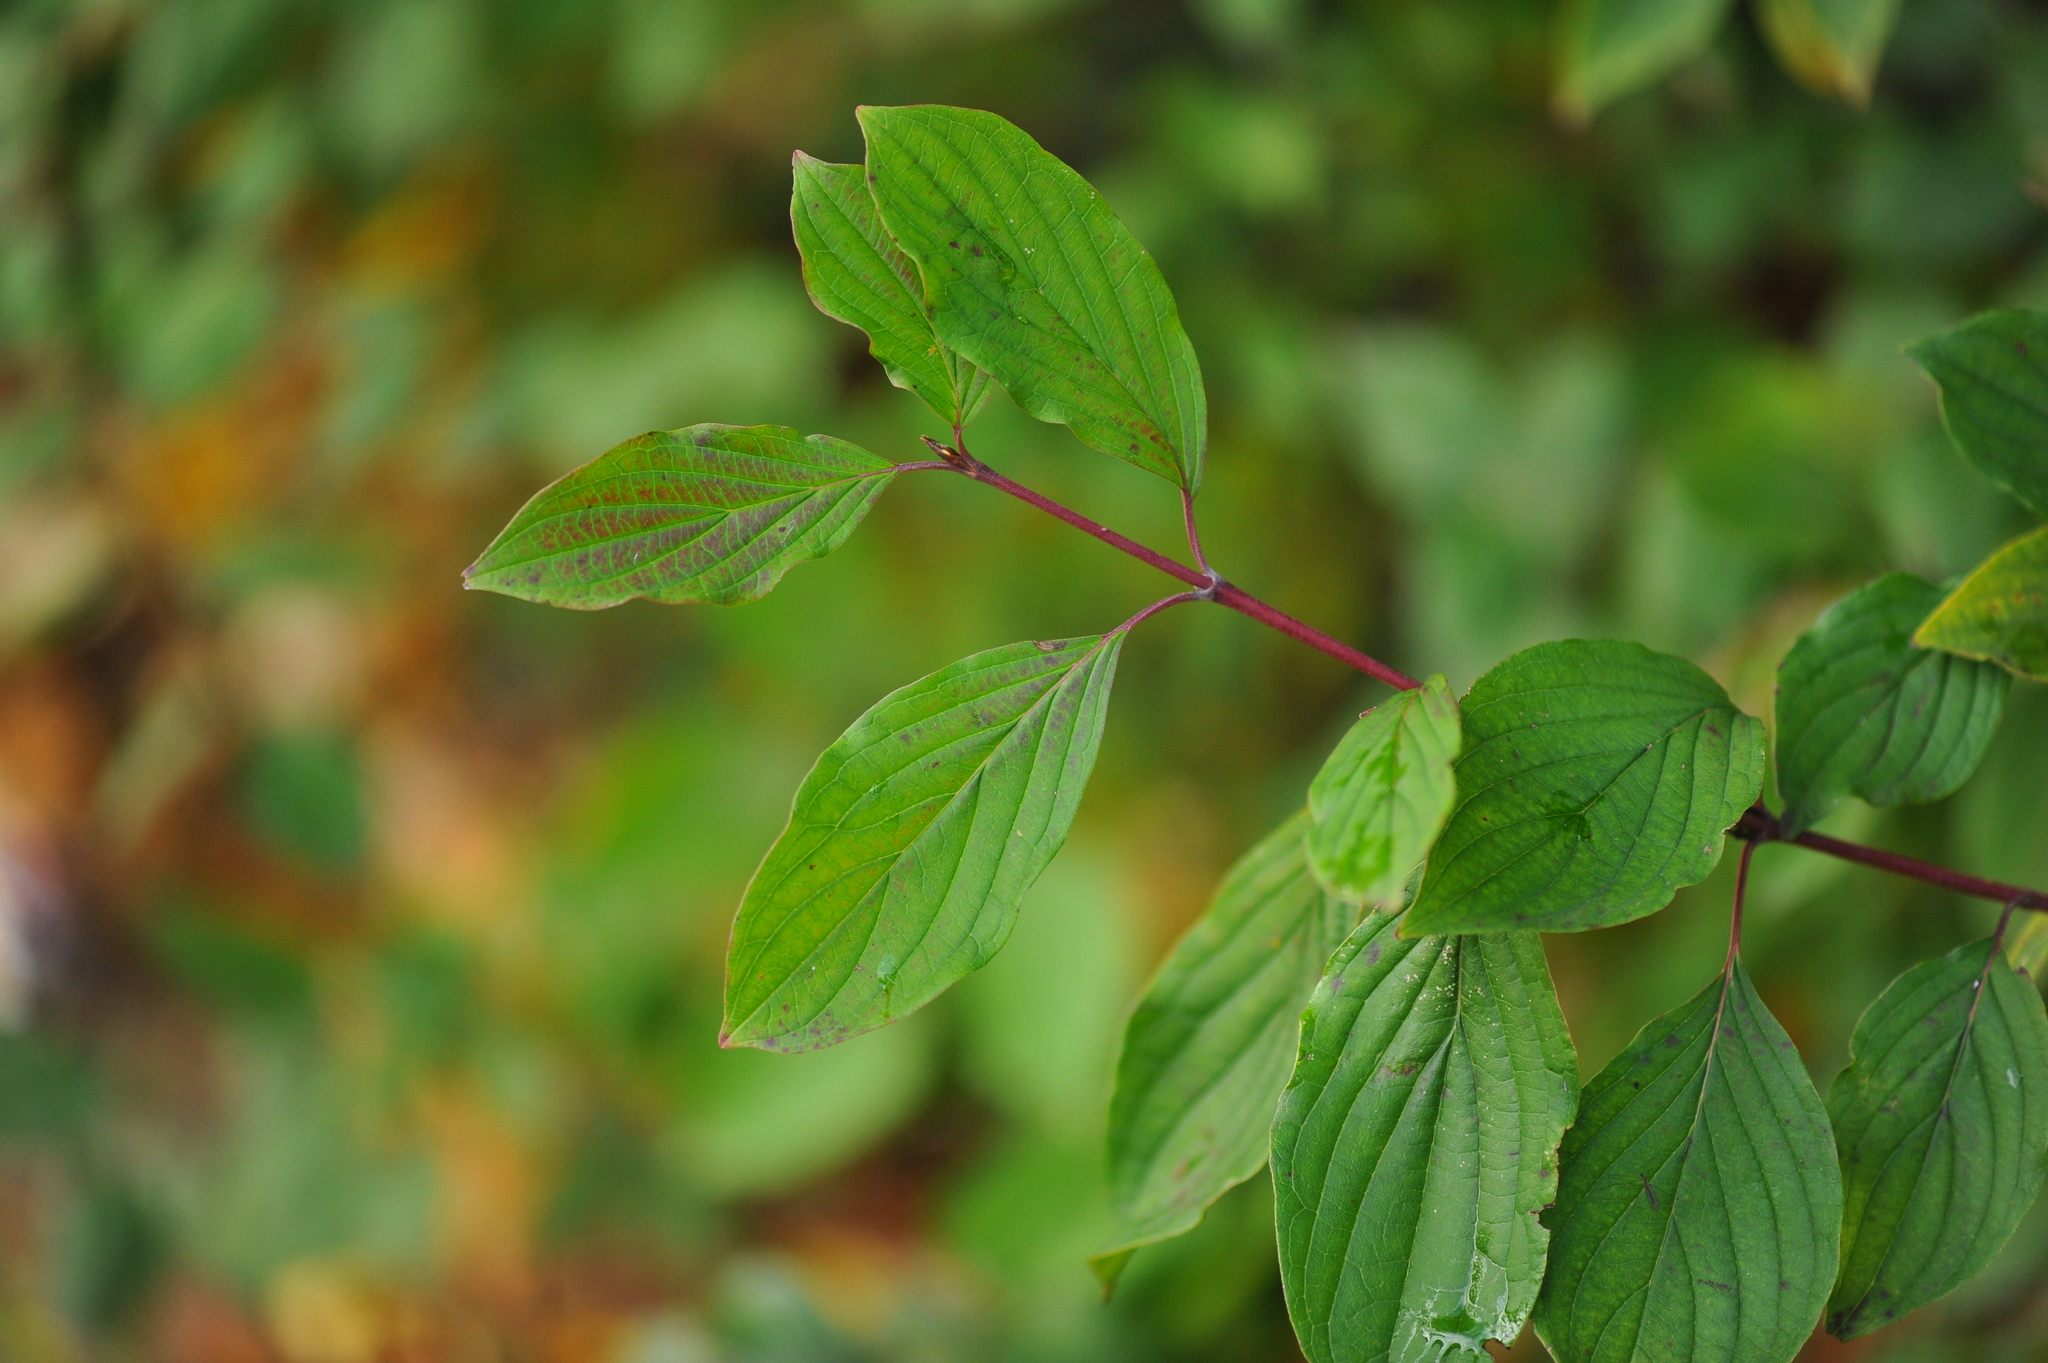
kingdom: Plantae
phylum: Tracheophyta
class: Magnoliopsida
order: Cornales
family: Cornaceae
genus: Cornus
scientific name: Cornus sanguinea
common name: Dogwood
